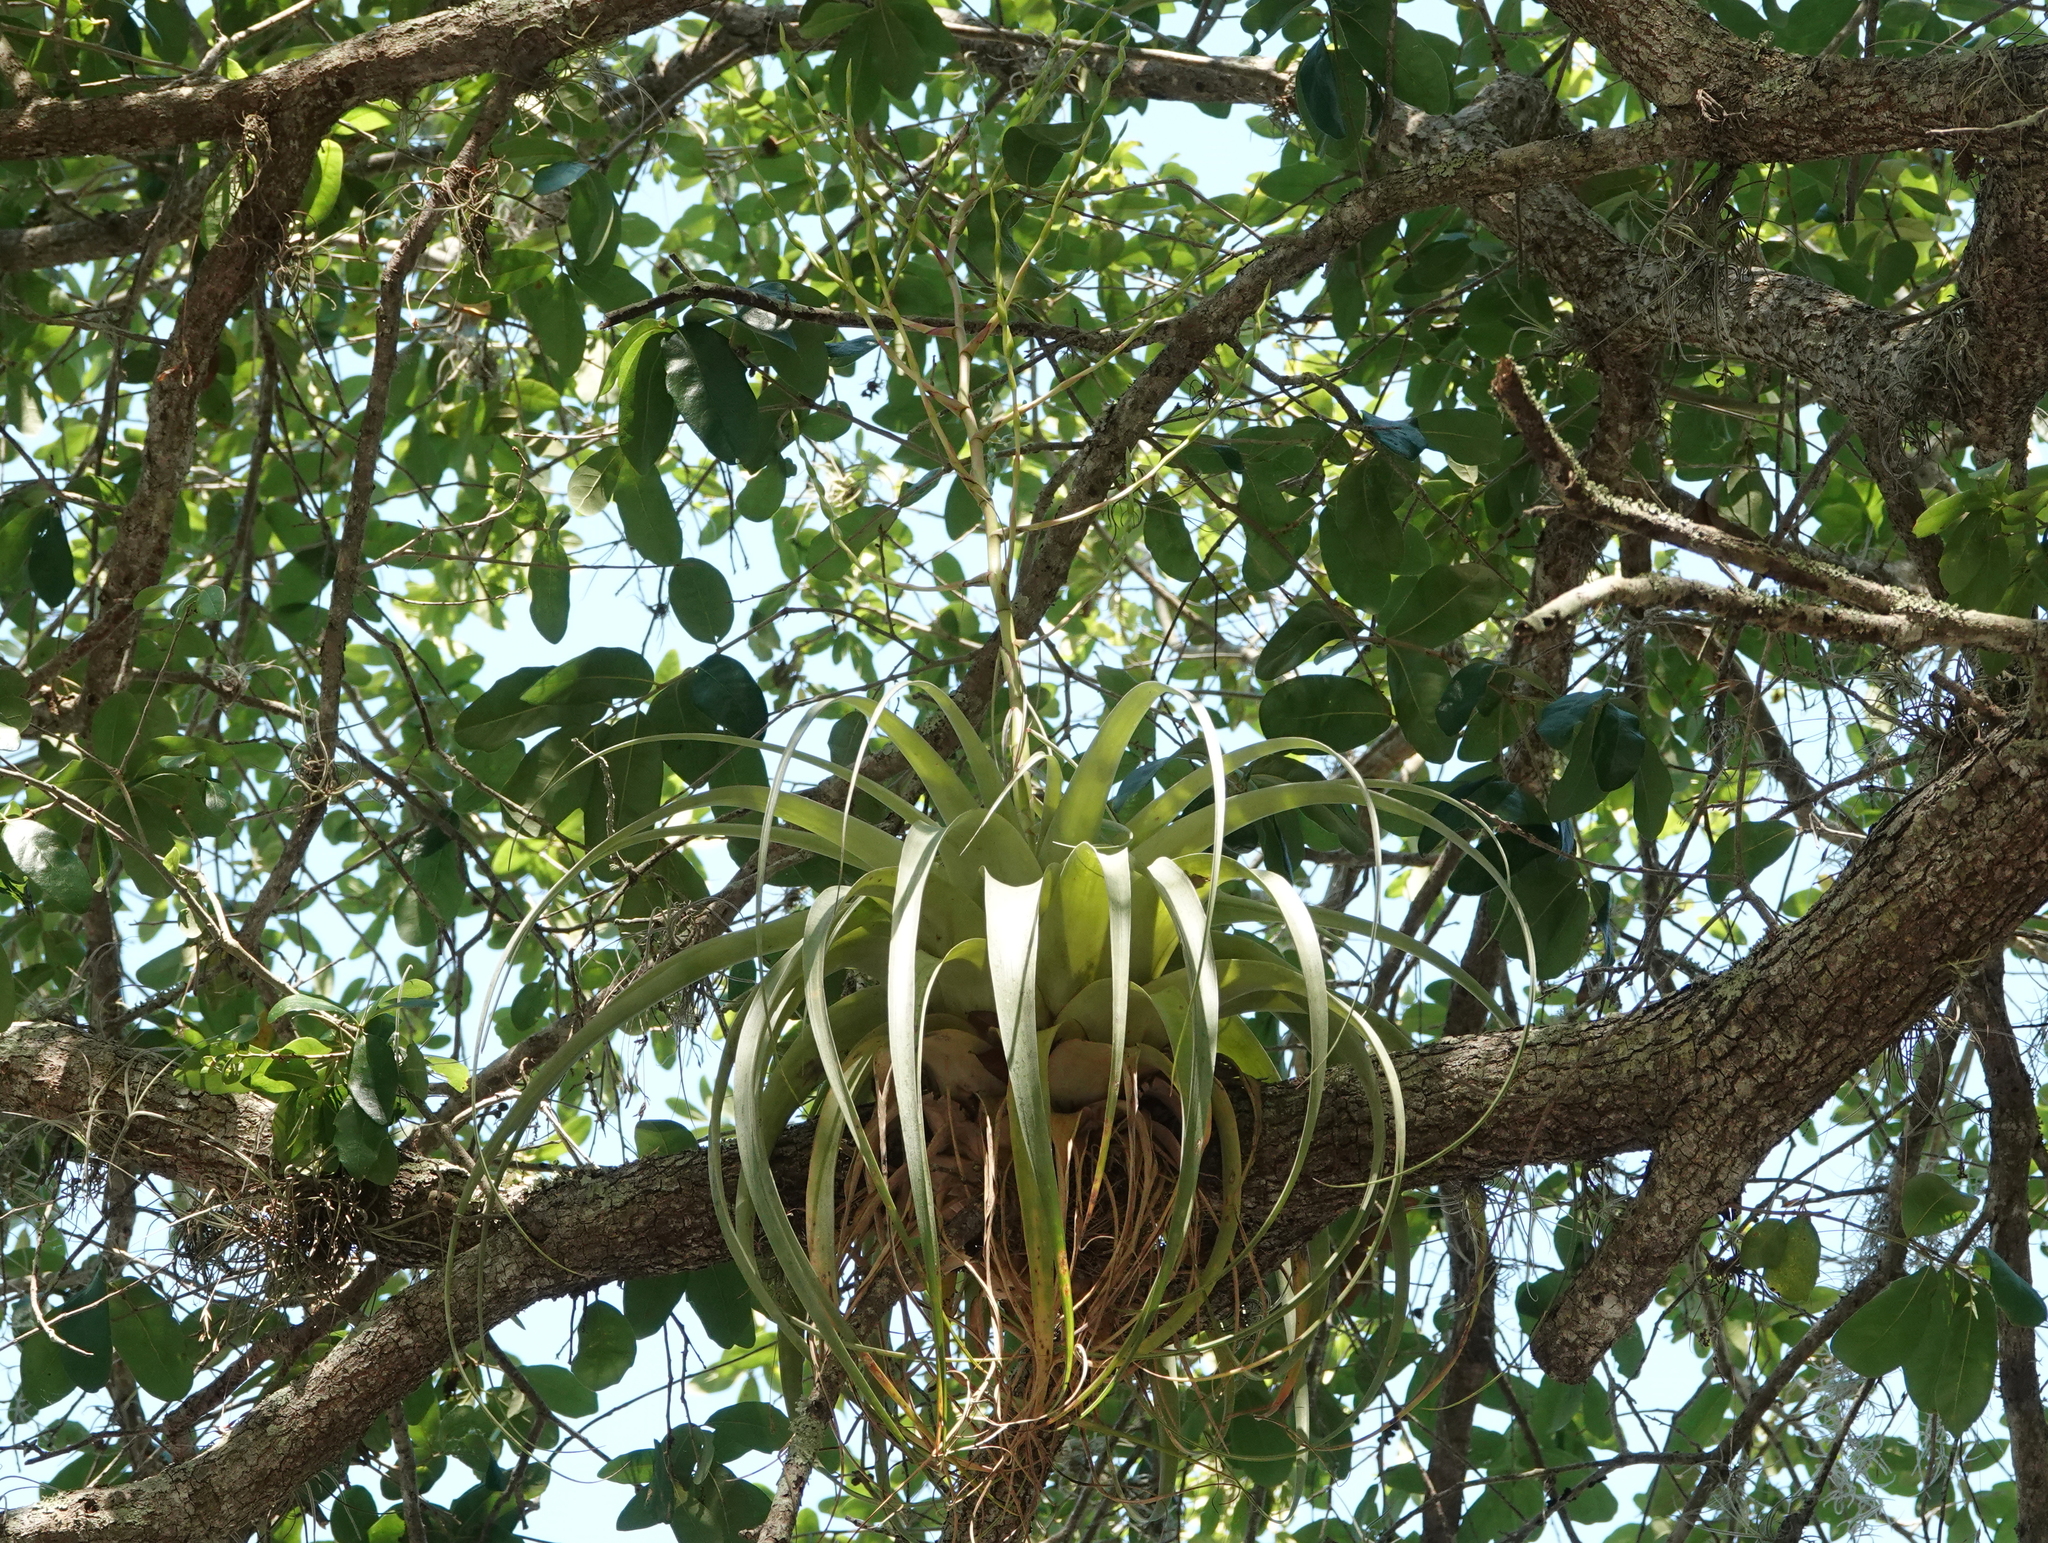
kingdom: Plantae
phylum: Tracheophyta
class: Liliopsida
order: Poales
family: Bromeliaceae
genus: Tillandsia
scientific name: Tillandsia utriculata
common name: Wild pine
